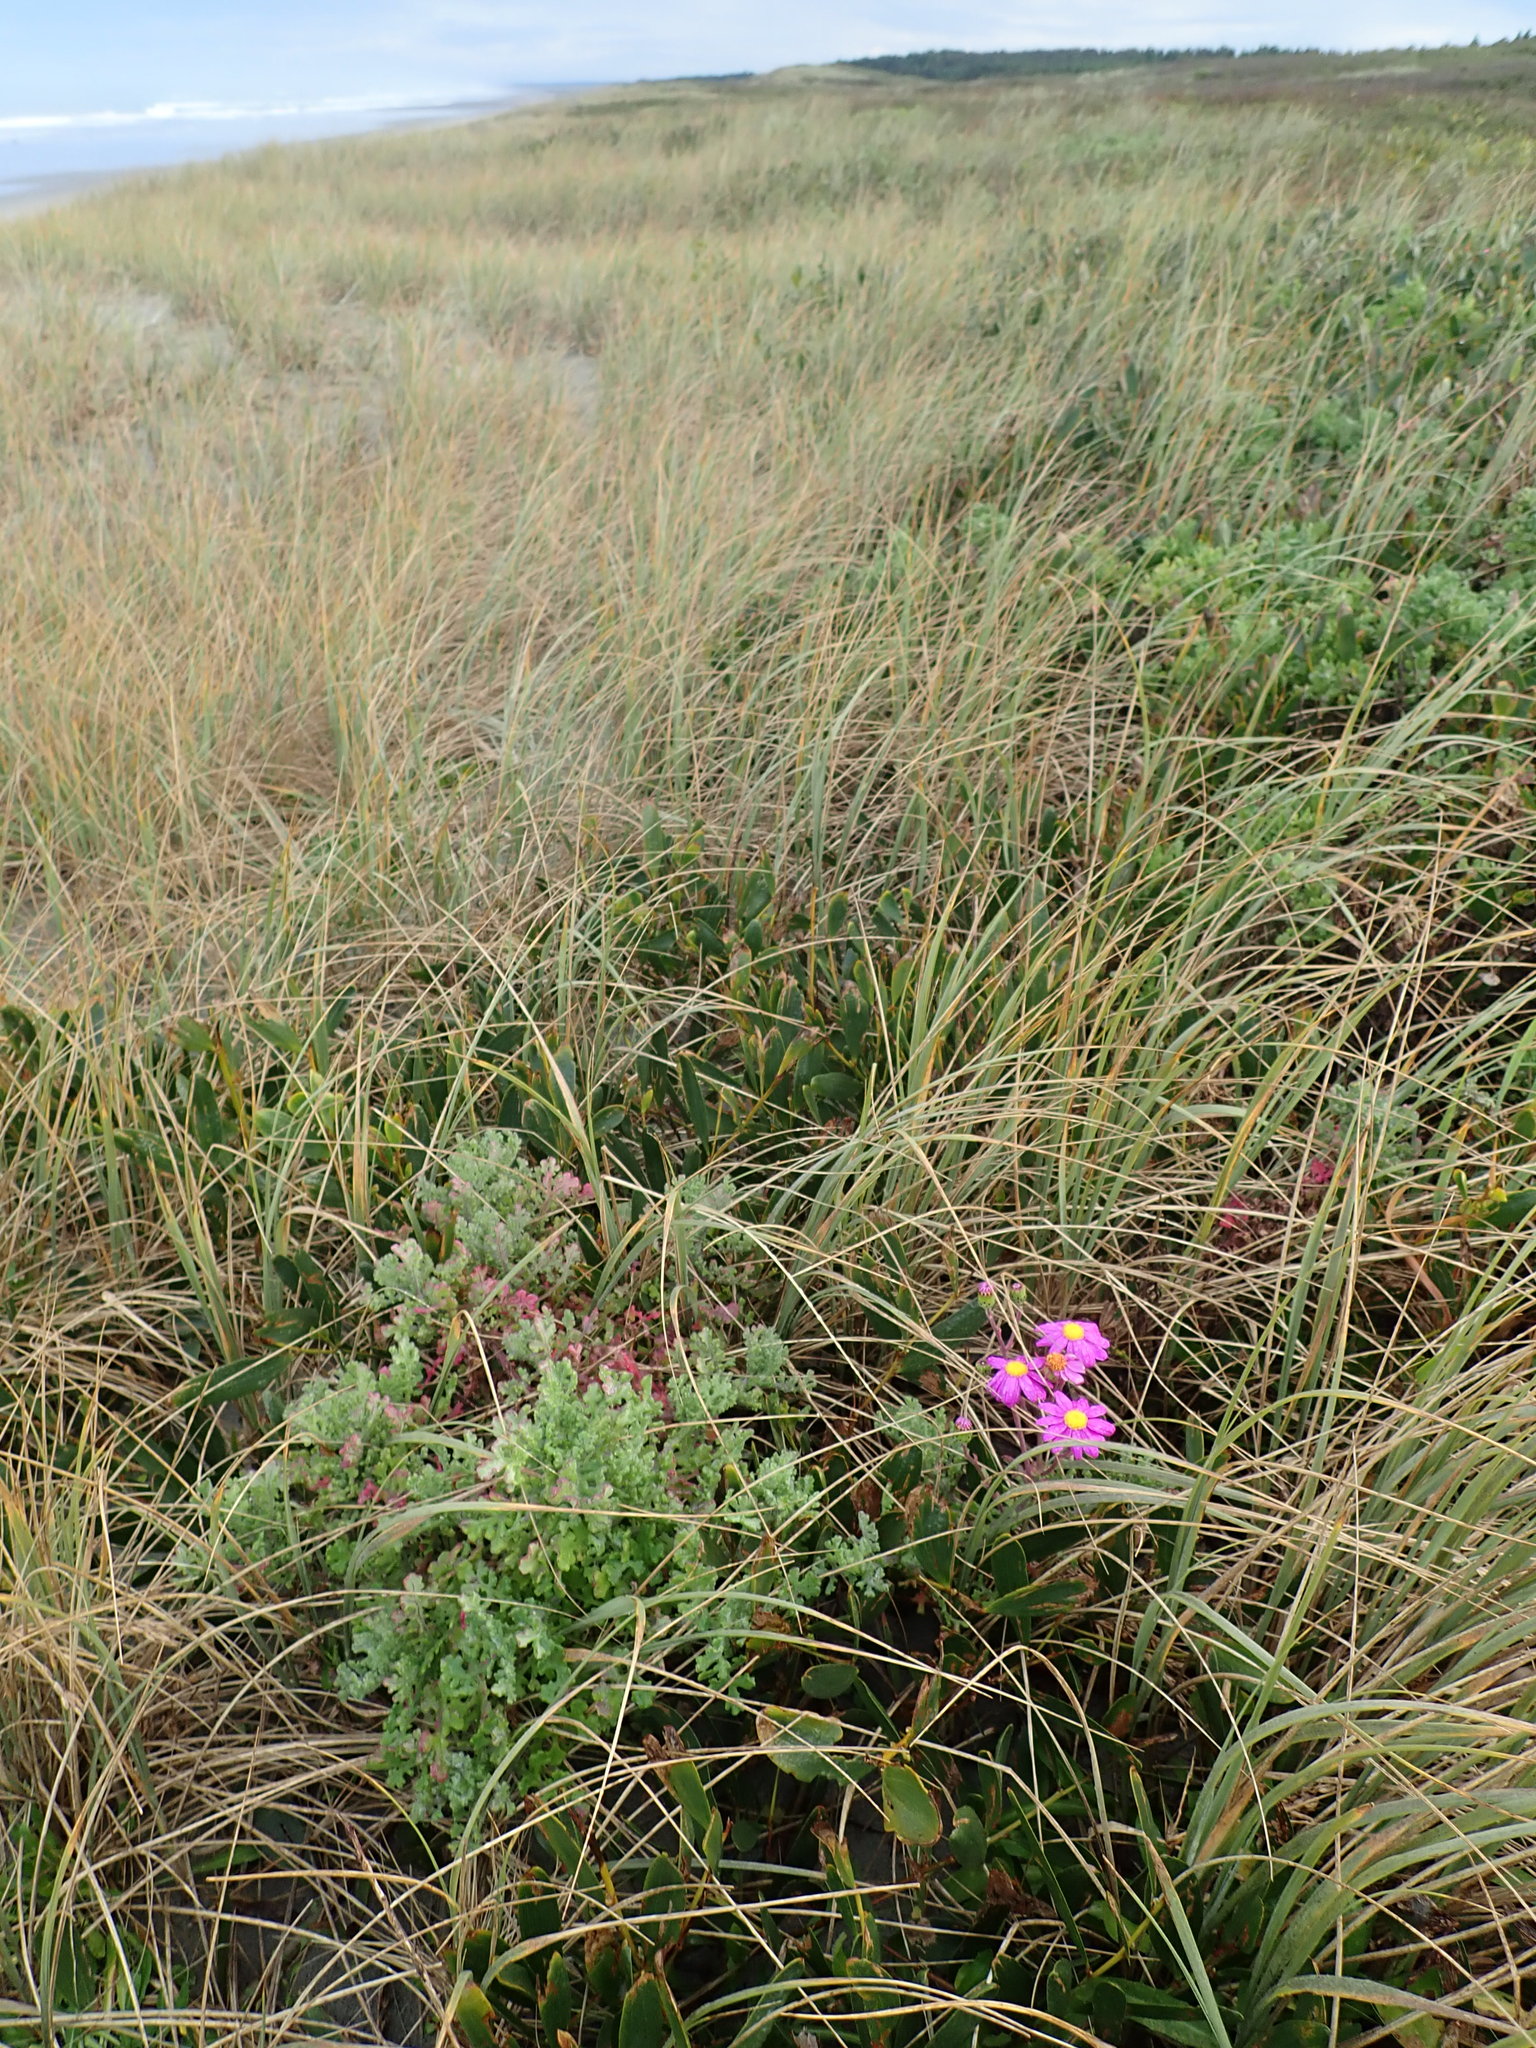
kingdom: Plantae
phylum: Tracheophyta
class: Magnoliopsida
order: Asterales
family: Asteraceae
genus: Senecio
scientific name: Senecio elegans
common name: Purple groundsel
